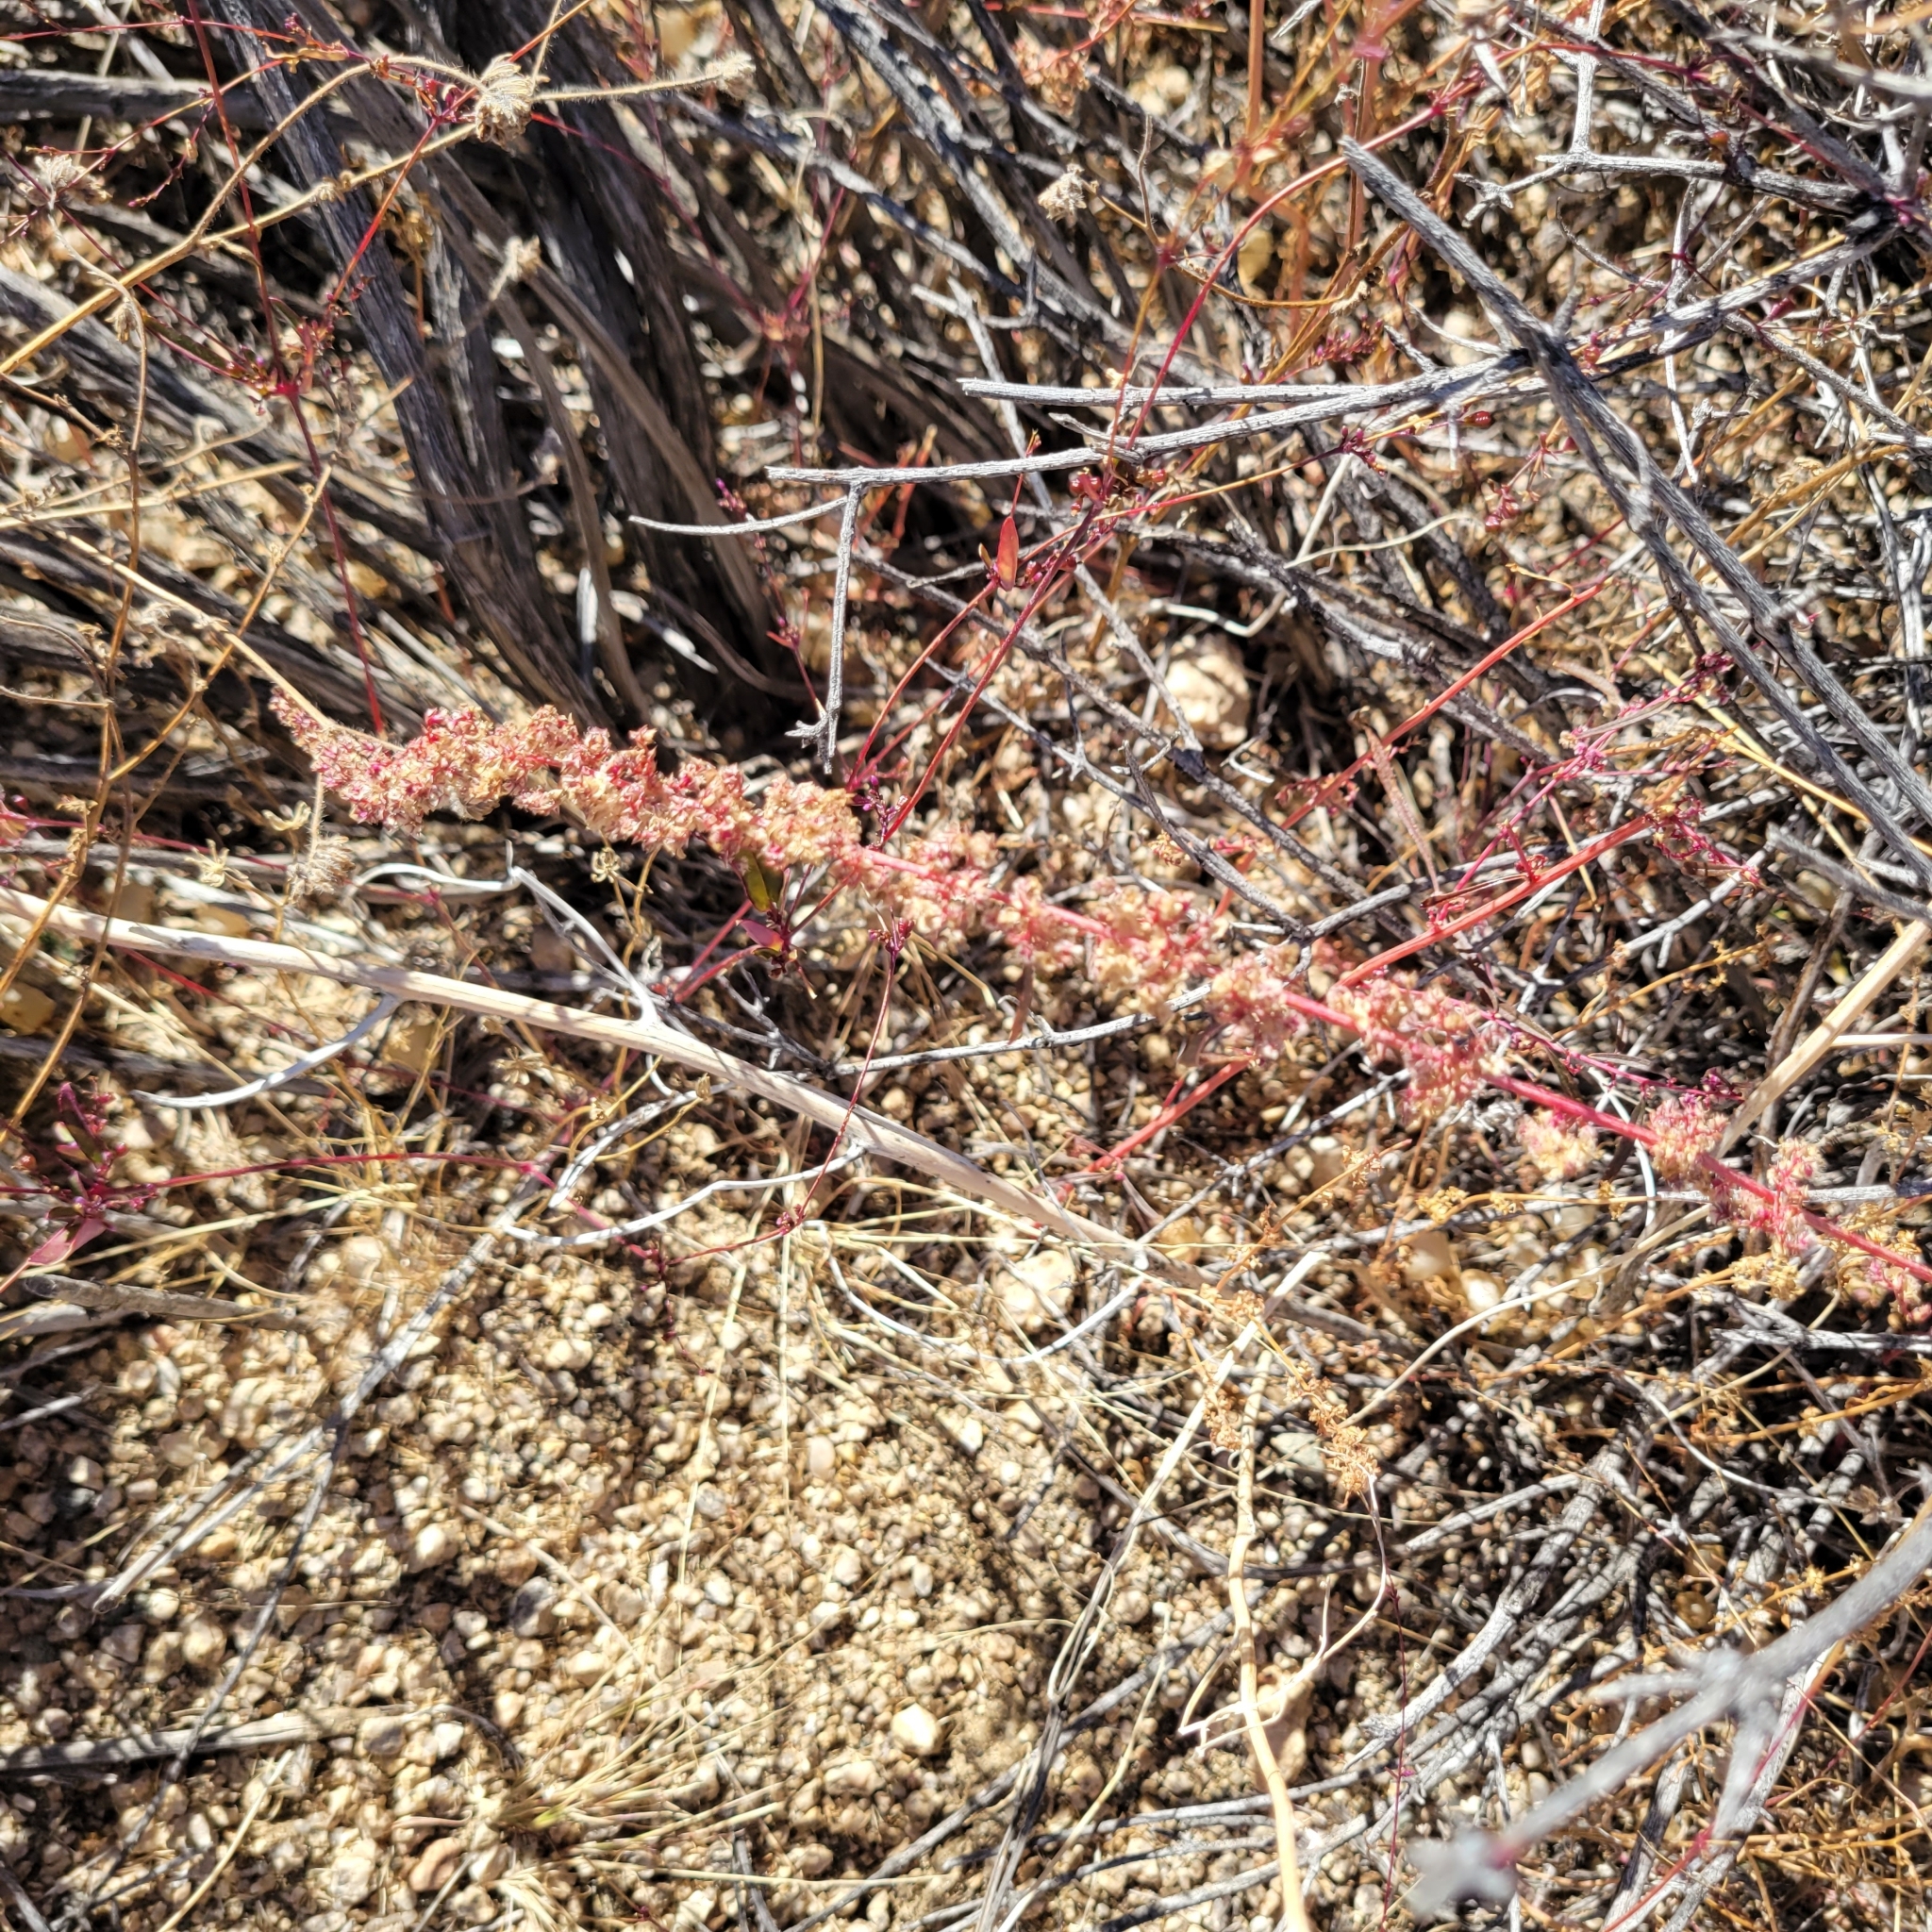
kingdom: Plantae
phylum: Tracheophyta
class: Magnoliopsida
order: Caryophyllales
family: Amaranthaceae
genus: Amaranthus
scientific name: Amaranthus fimbriatus
